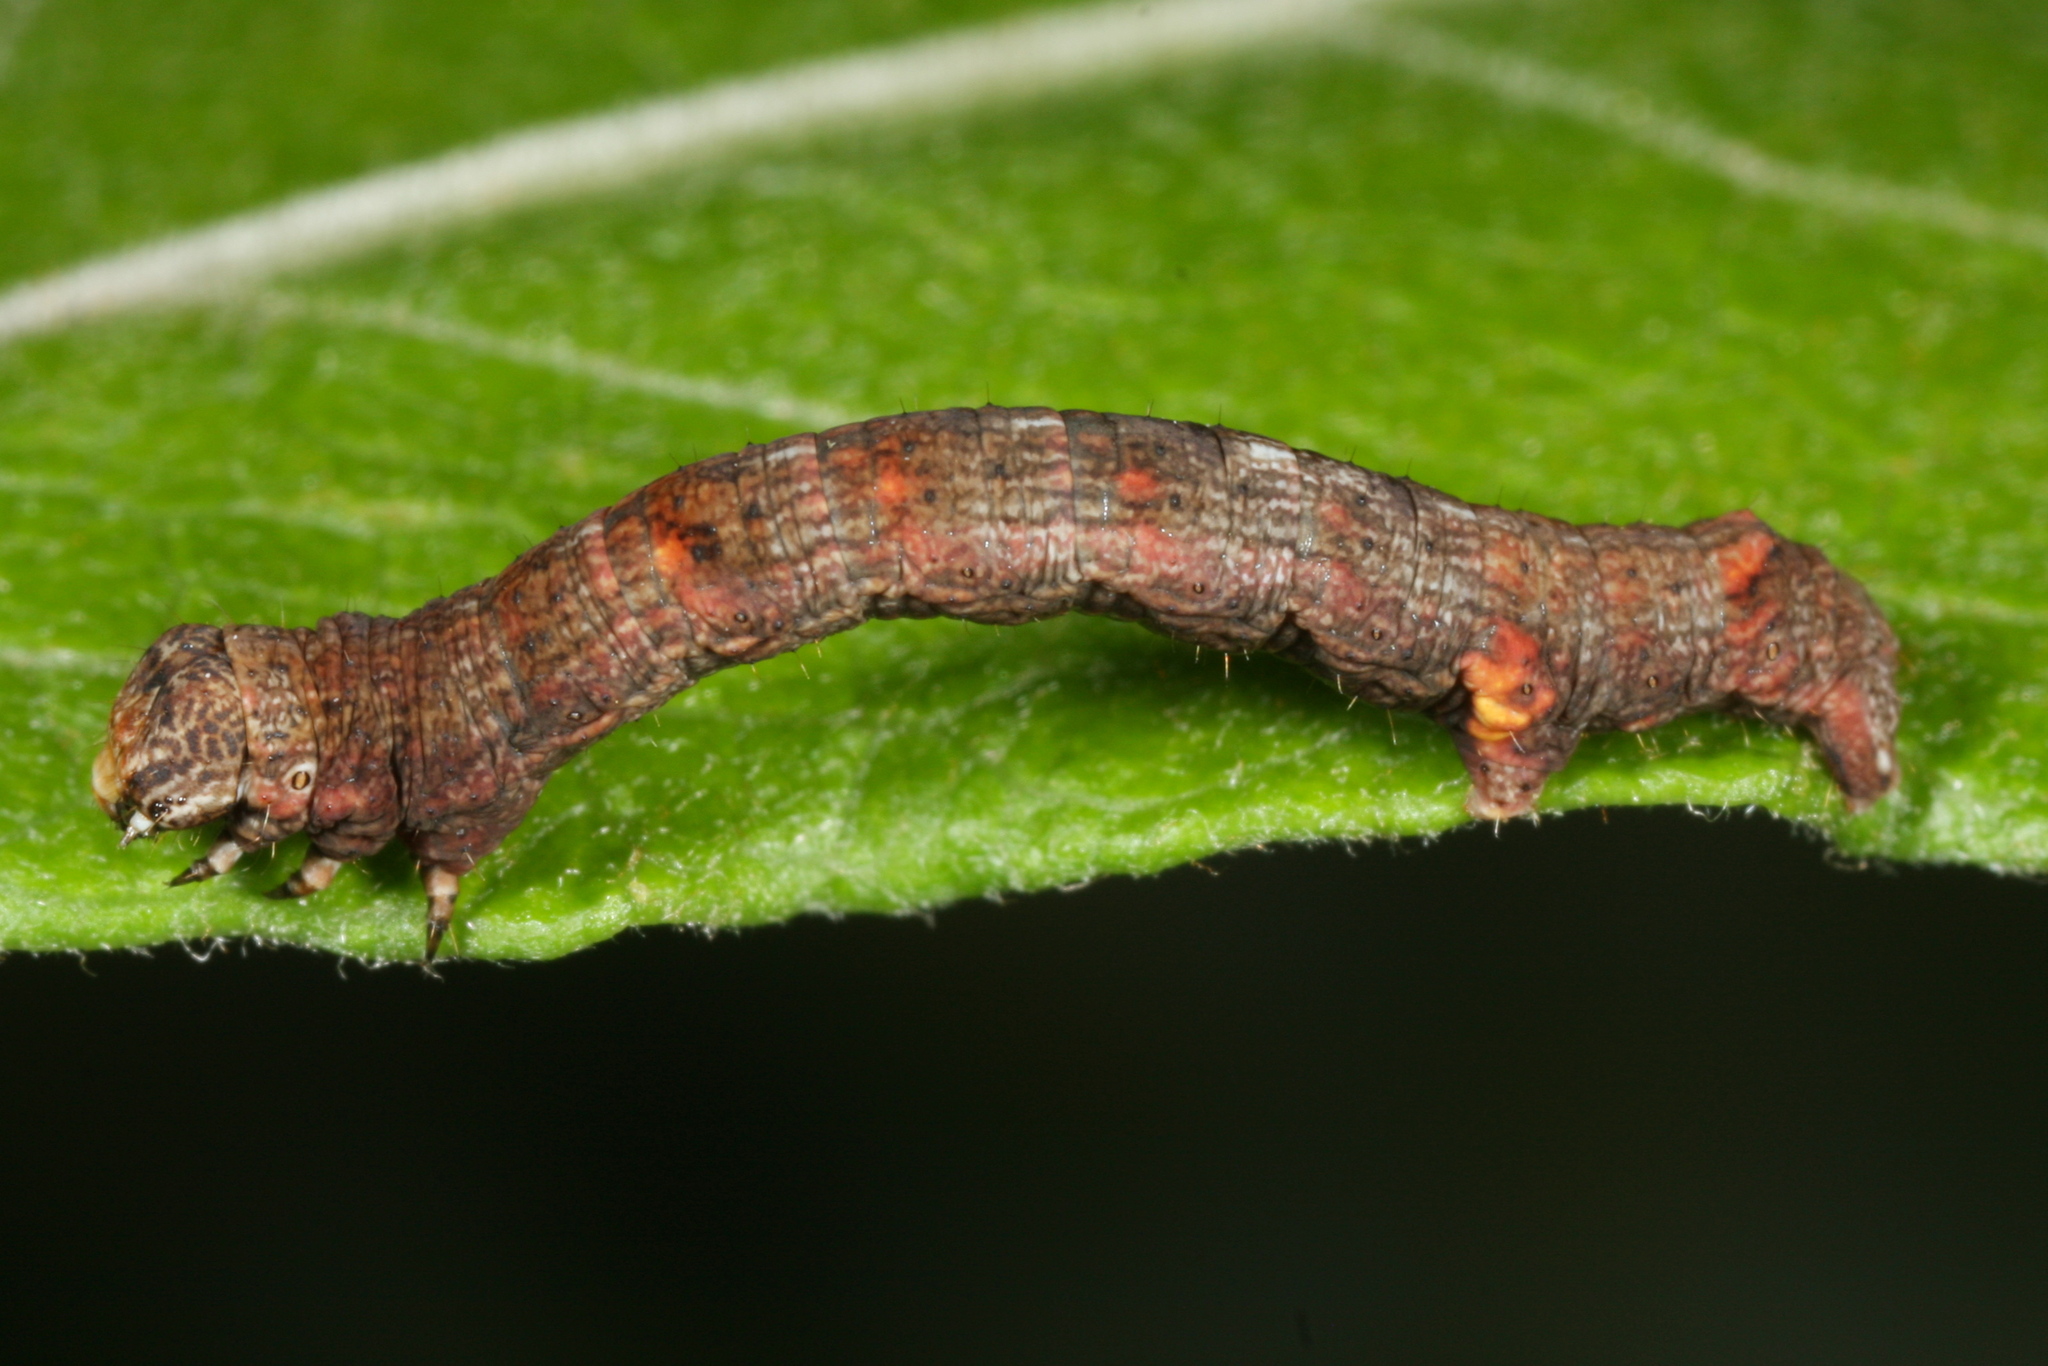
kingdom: Animalia
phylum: Arthropoda
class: Insecta
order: Lepidoptera
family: Geometridae
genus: Ectropis
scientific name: Ectropis crepuscularia
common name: Engrailed
